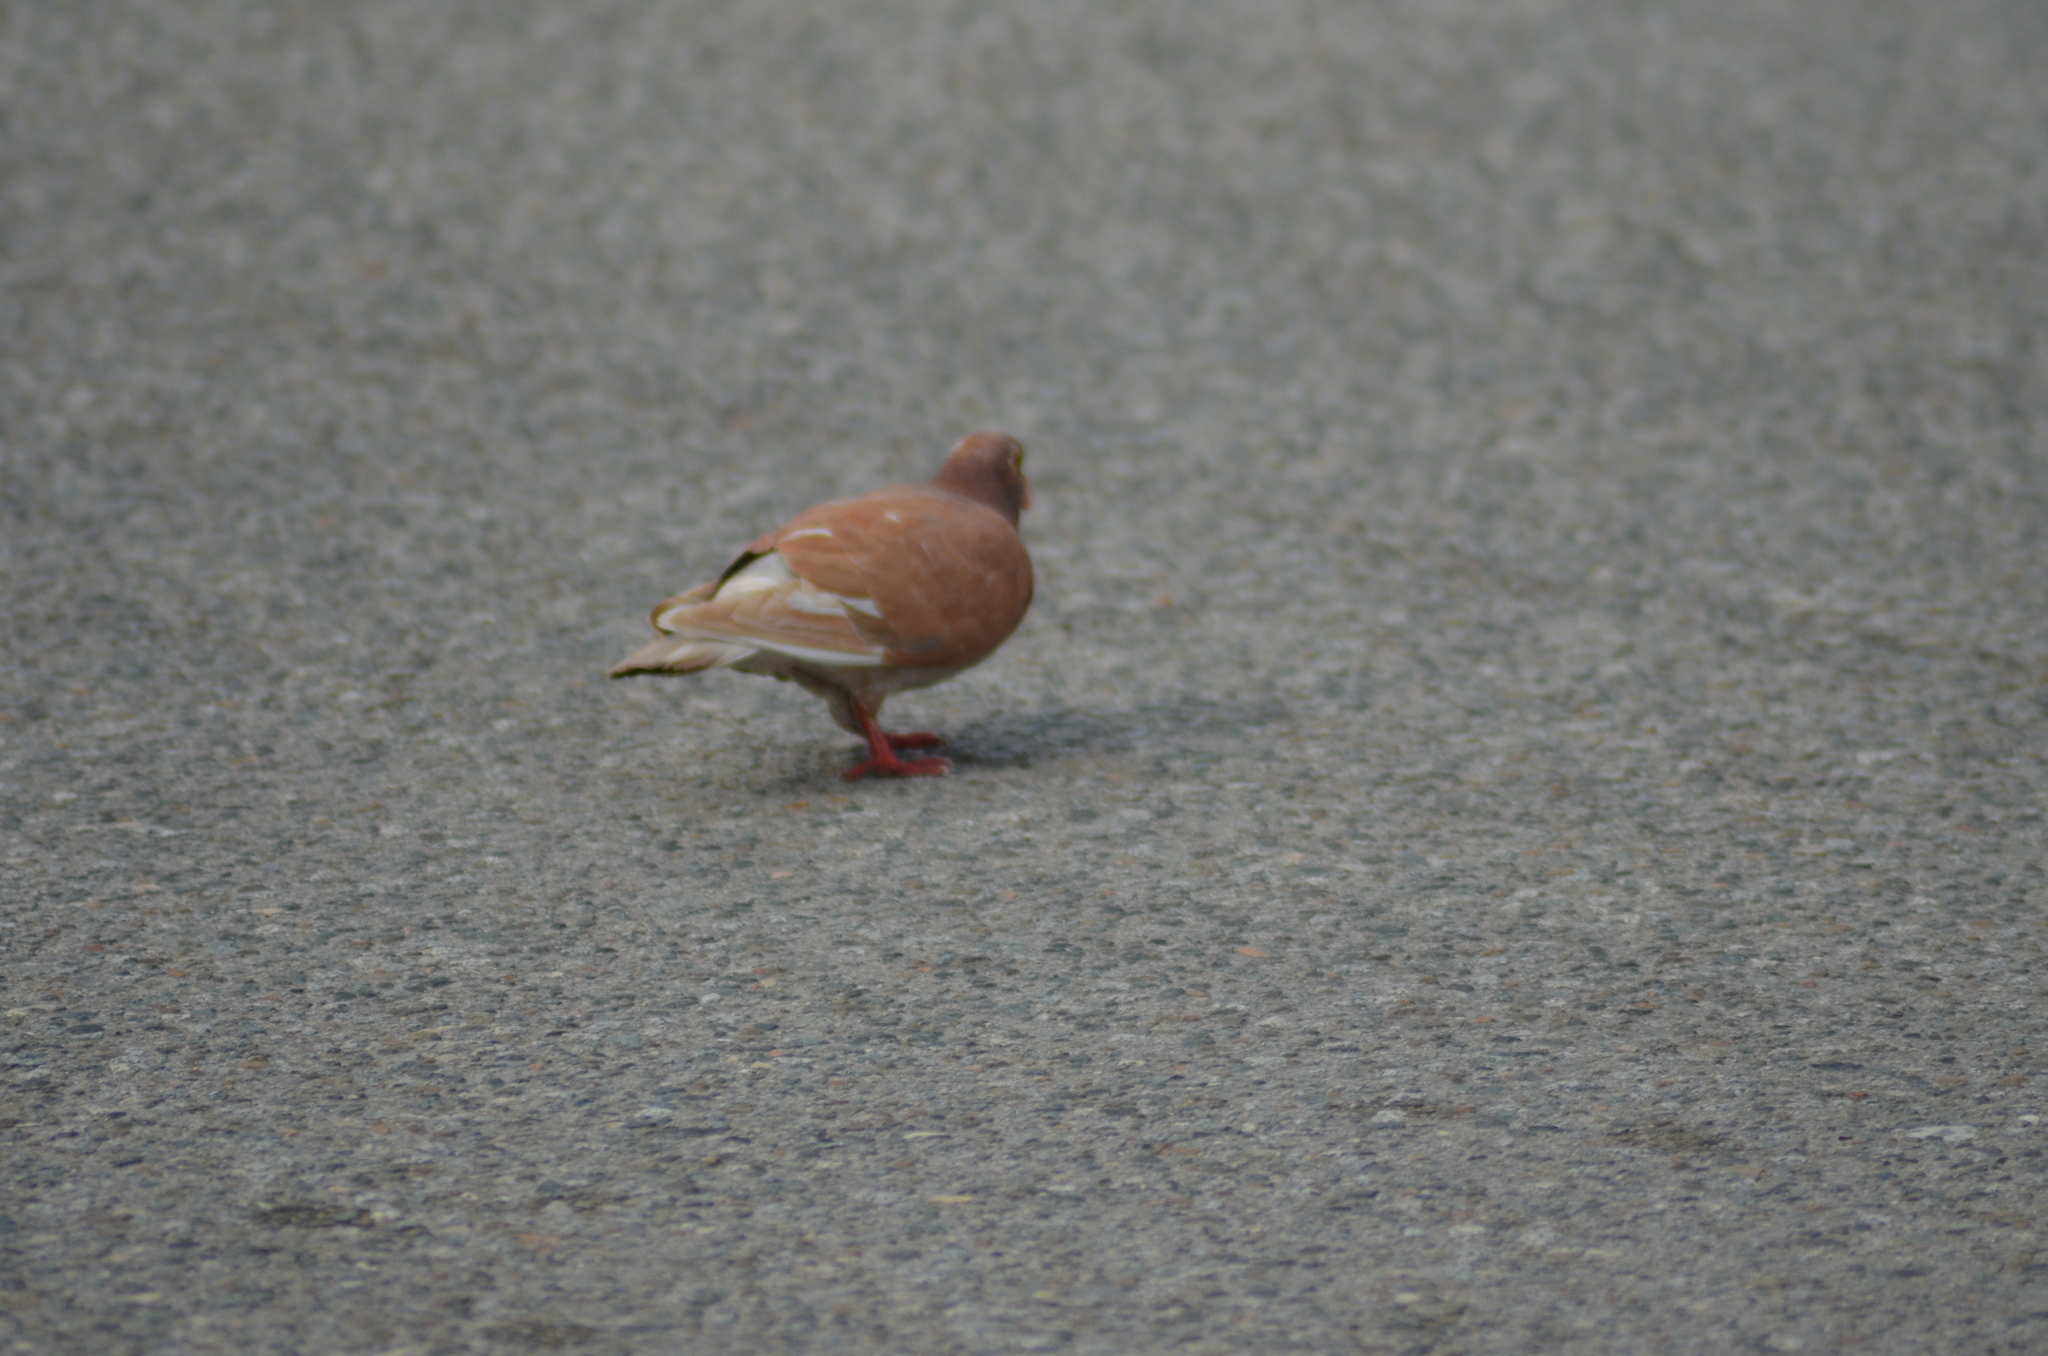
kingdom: Animalia
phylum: Chordata
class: Aves
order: Columbiformes
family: Columbidae
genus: Columba
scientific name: Columba livia
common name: Rock pigeon
